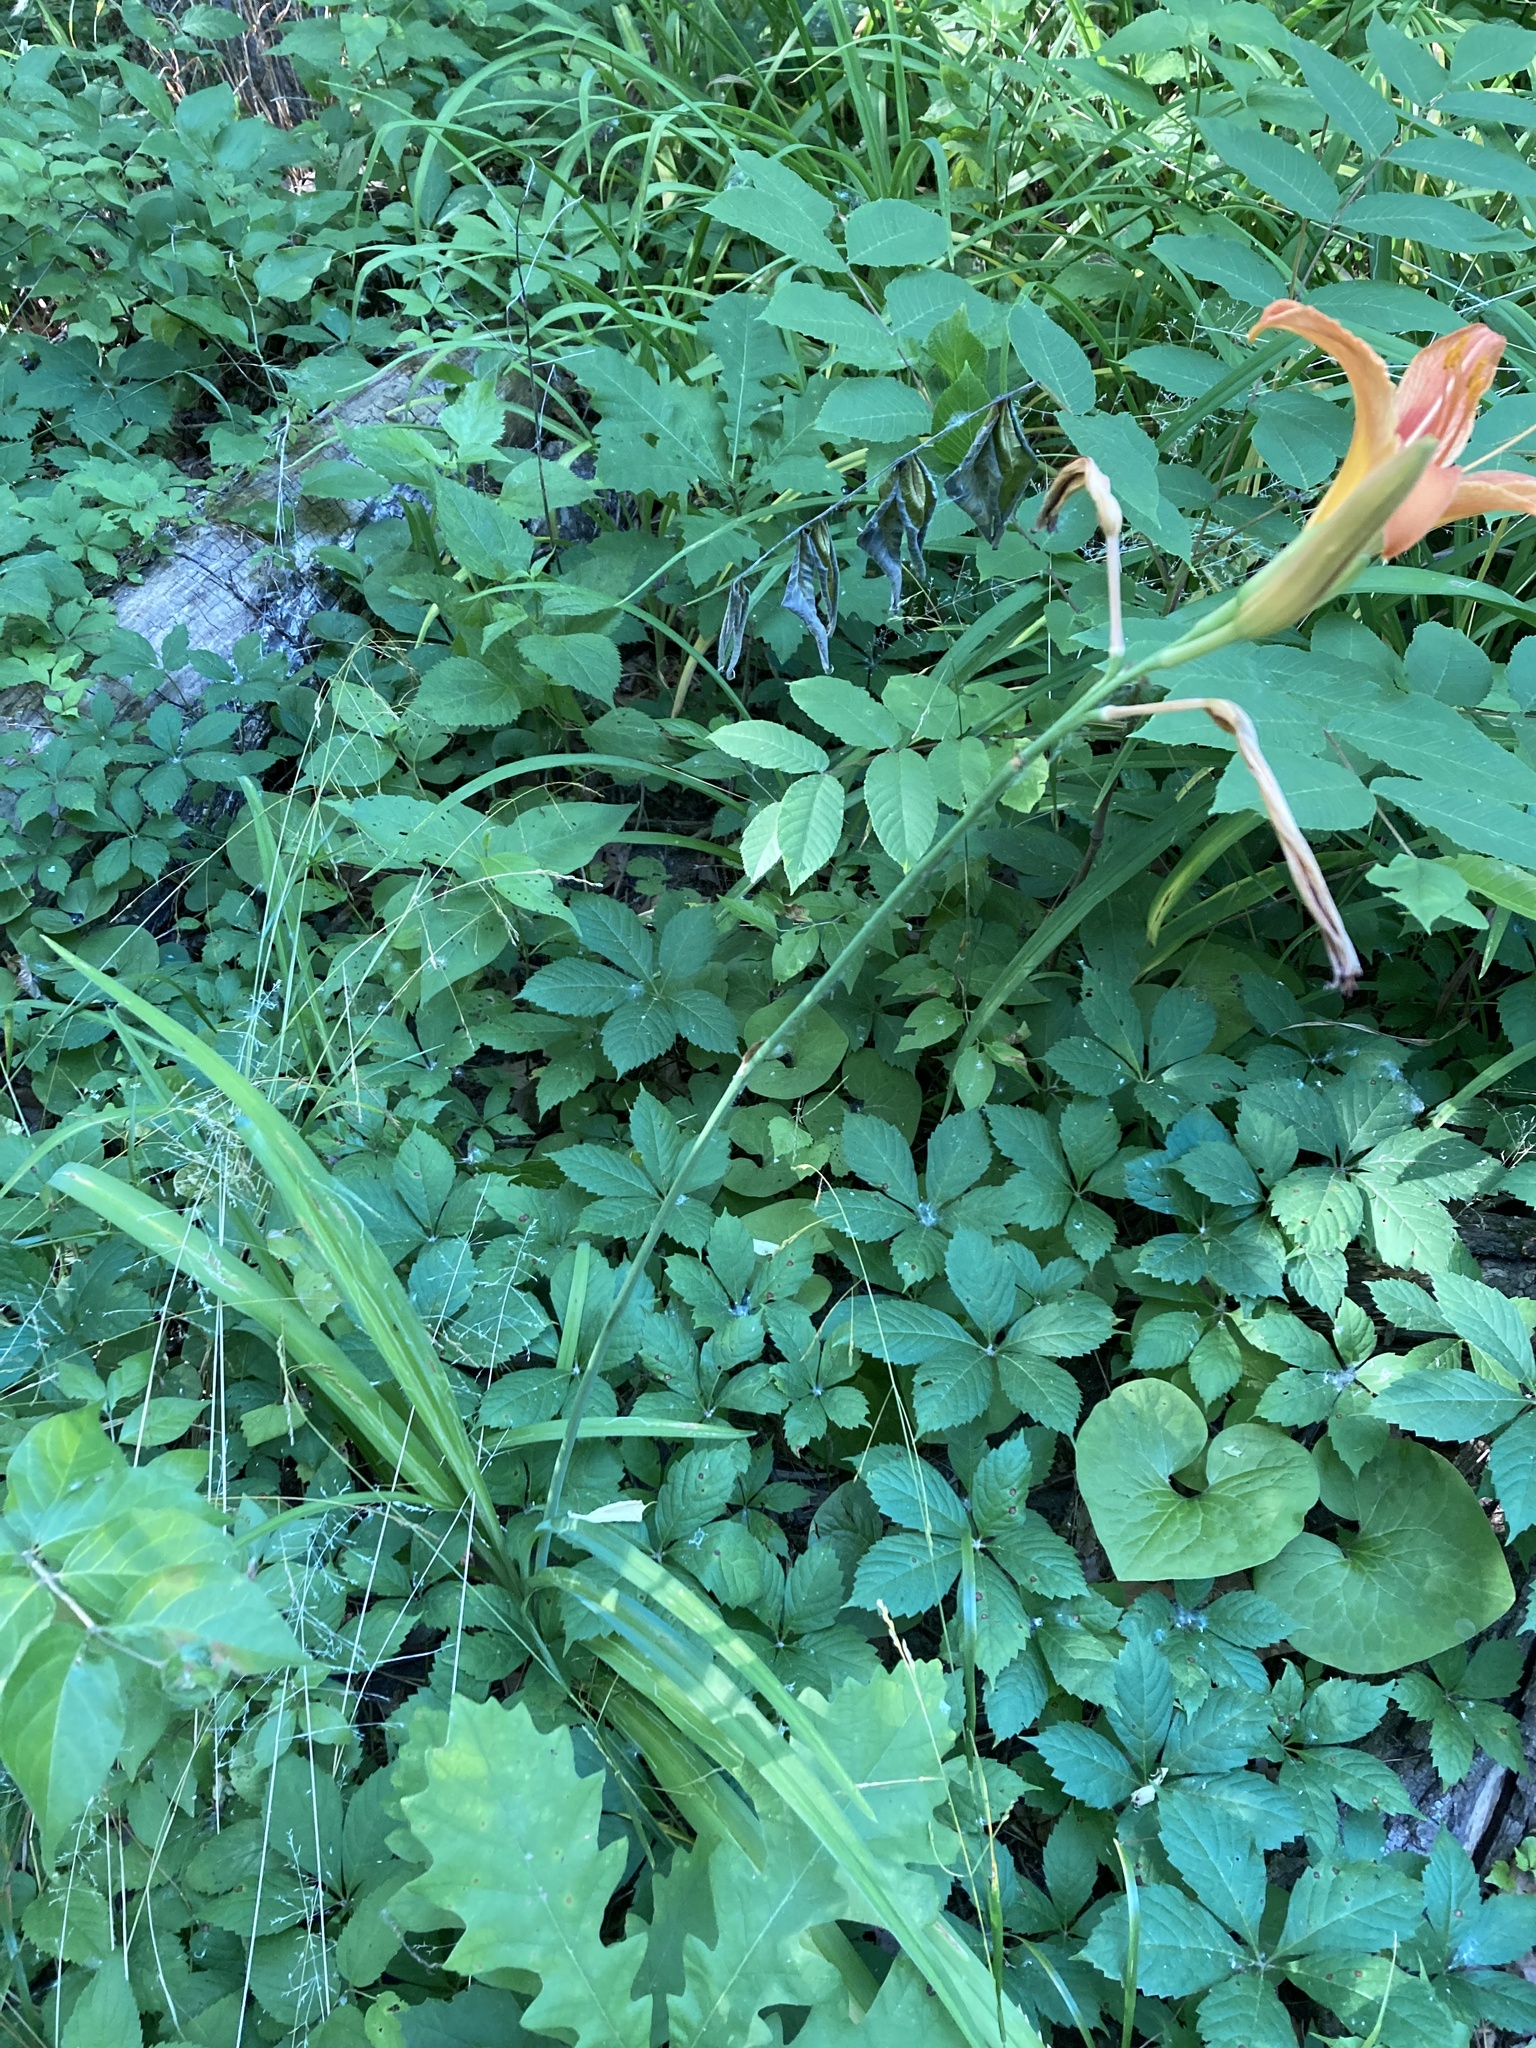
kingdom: Plantae
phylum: Tracheophyta
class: Liliopsida
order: Asparagales
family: Asphodelaceae
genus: Hemerocallis
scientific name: Hemerocallis fulva
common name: Orange day-lily
